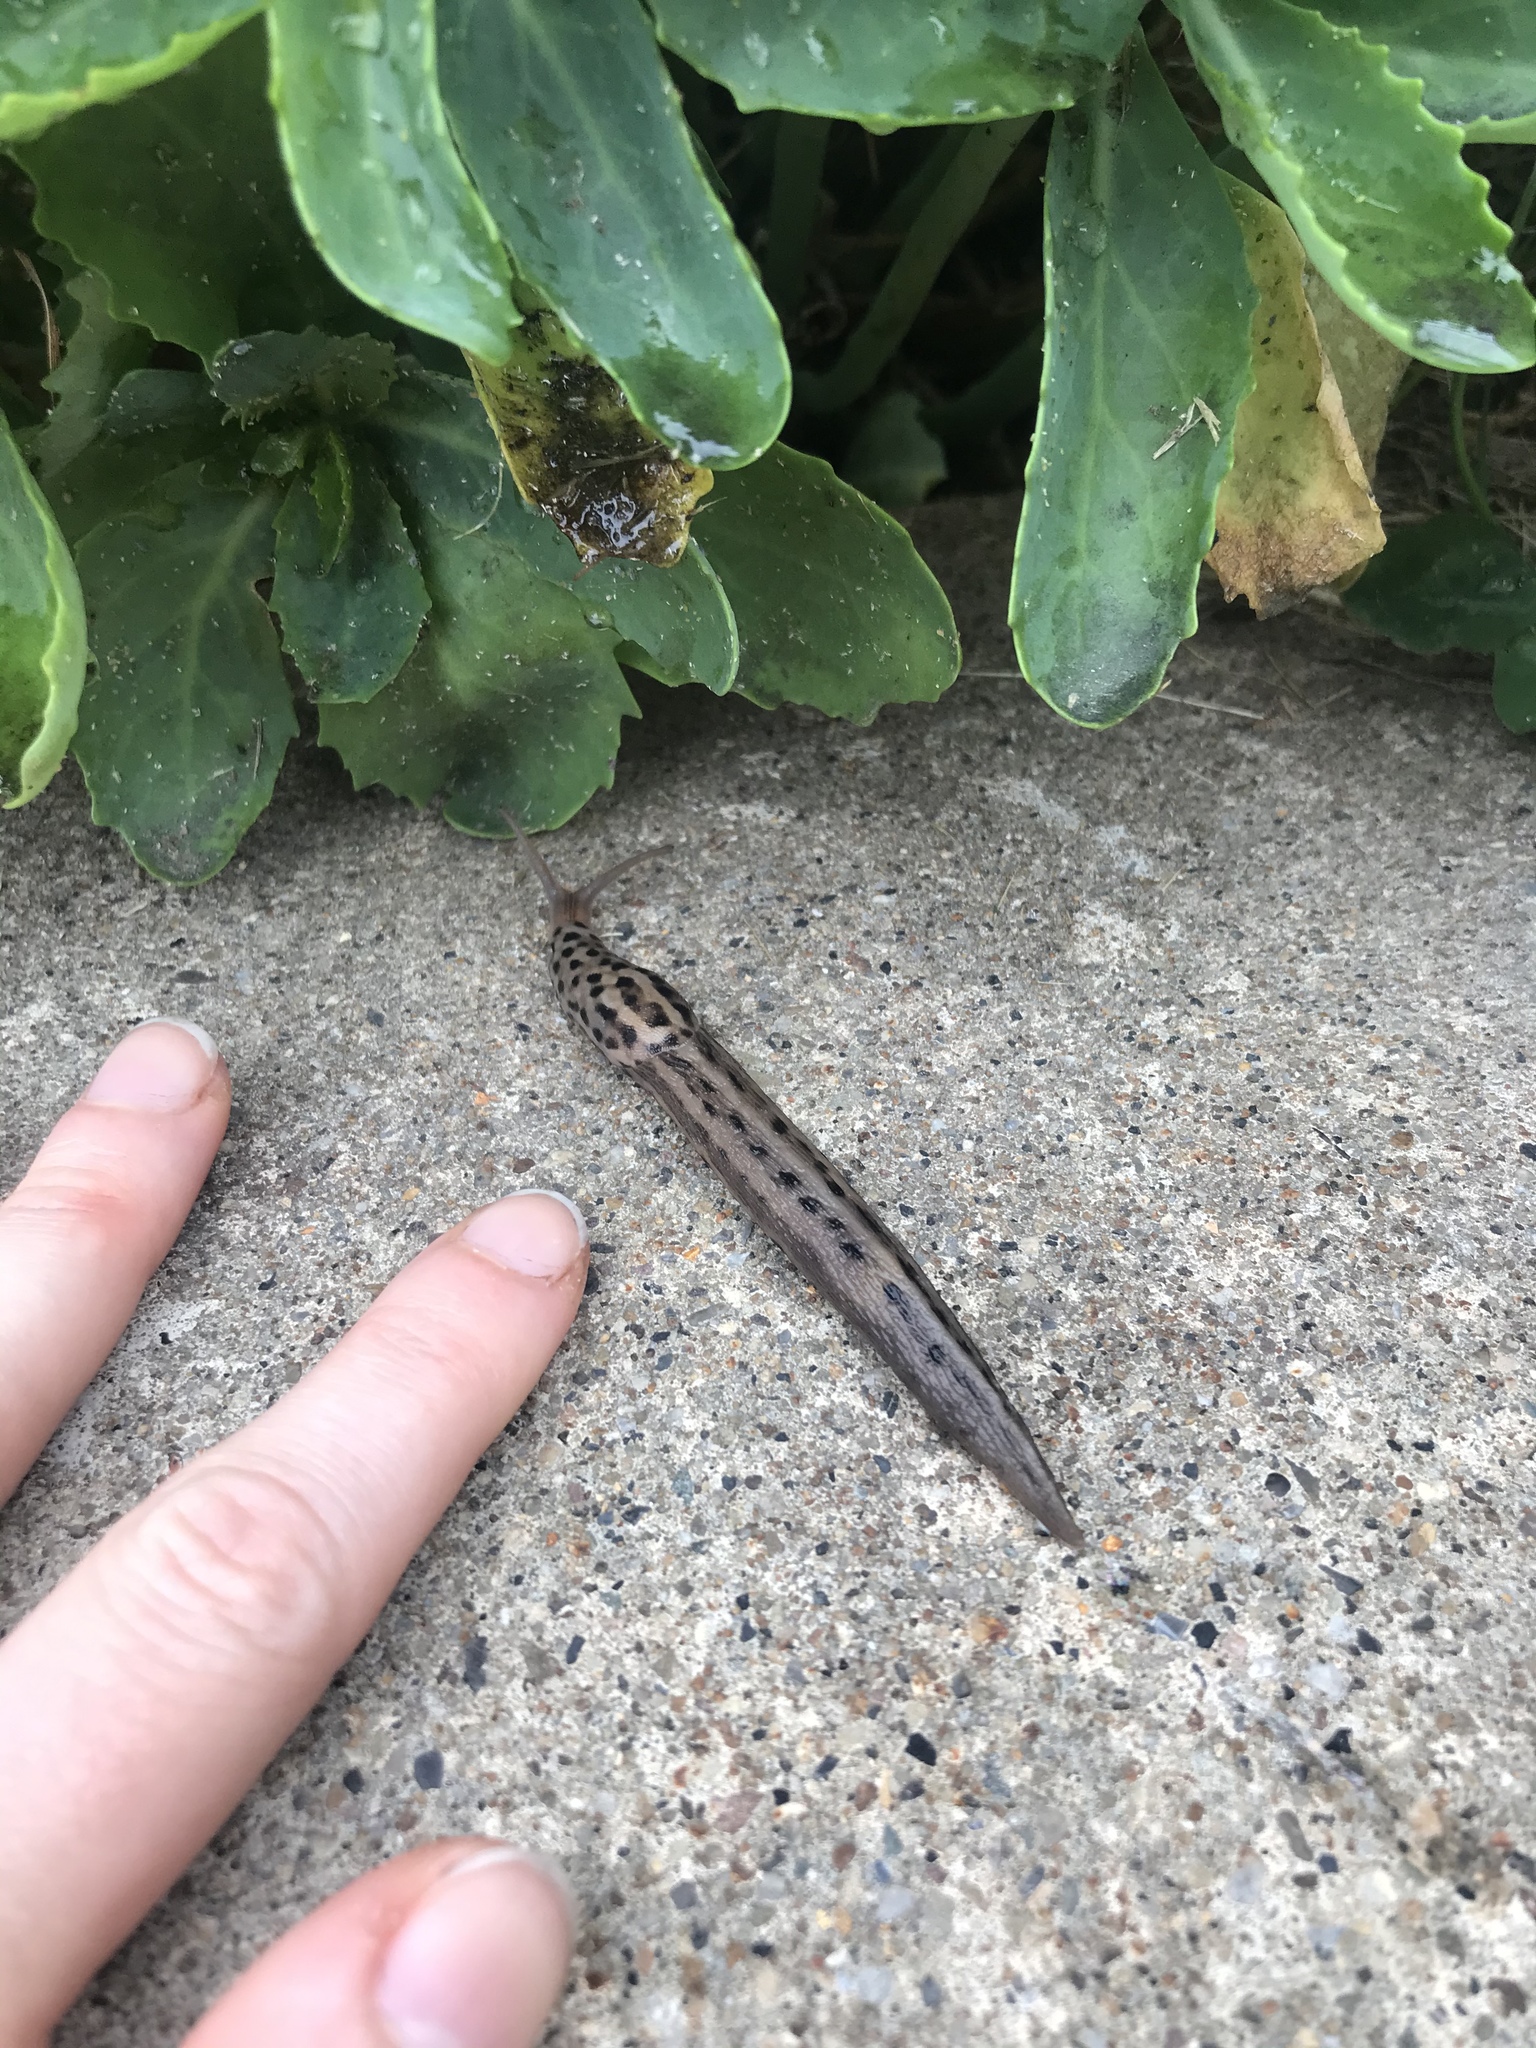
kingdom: Animalia
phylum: Mollusca
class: Gastropoda
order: Stylommatophora
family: Limacidae
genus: Limax
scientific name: Limax maximus
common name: Great grey slug
